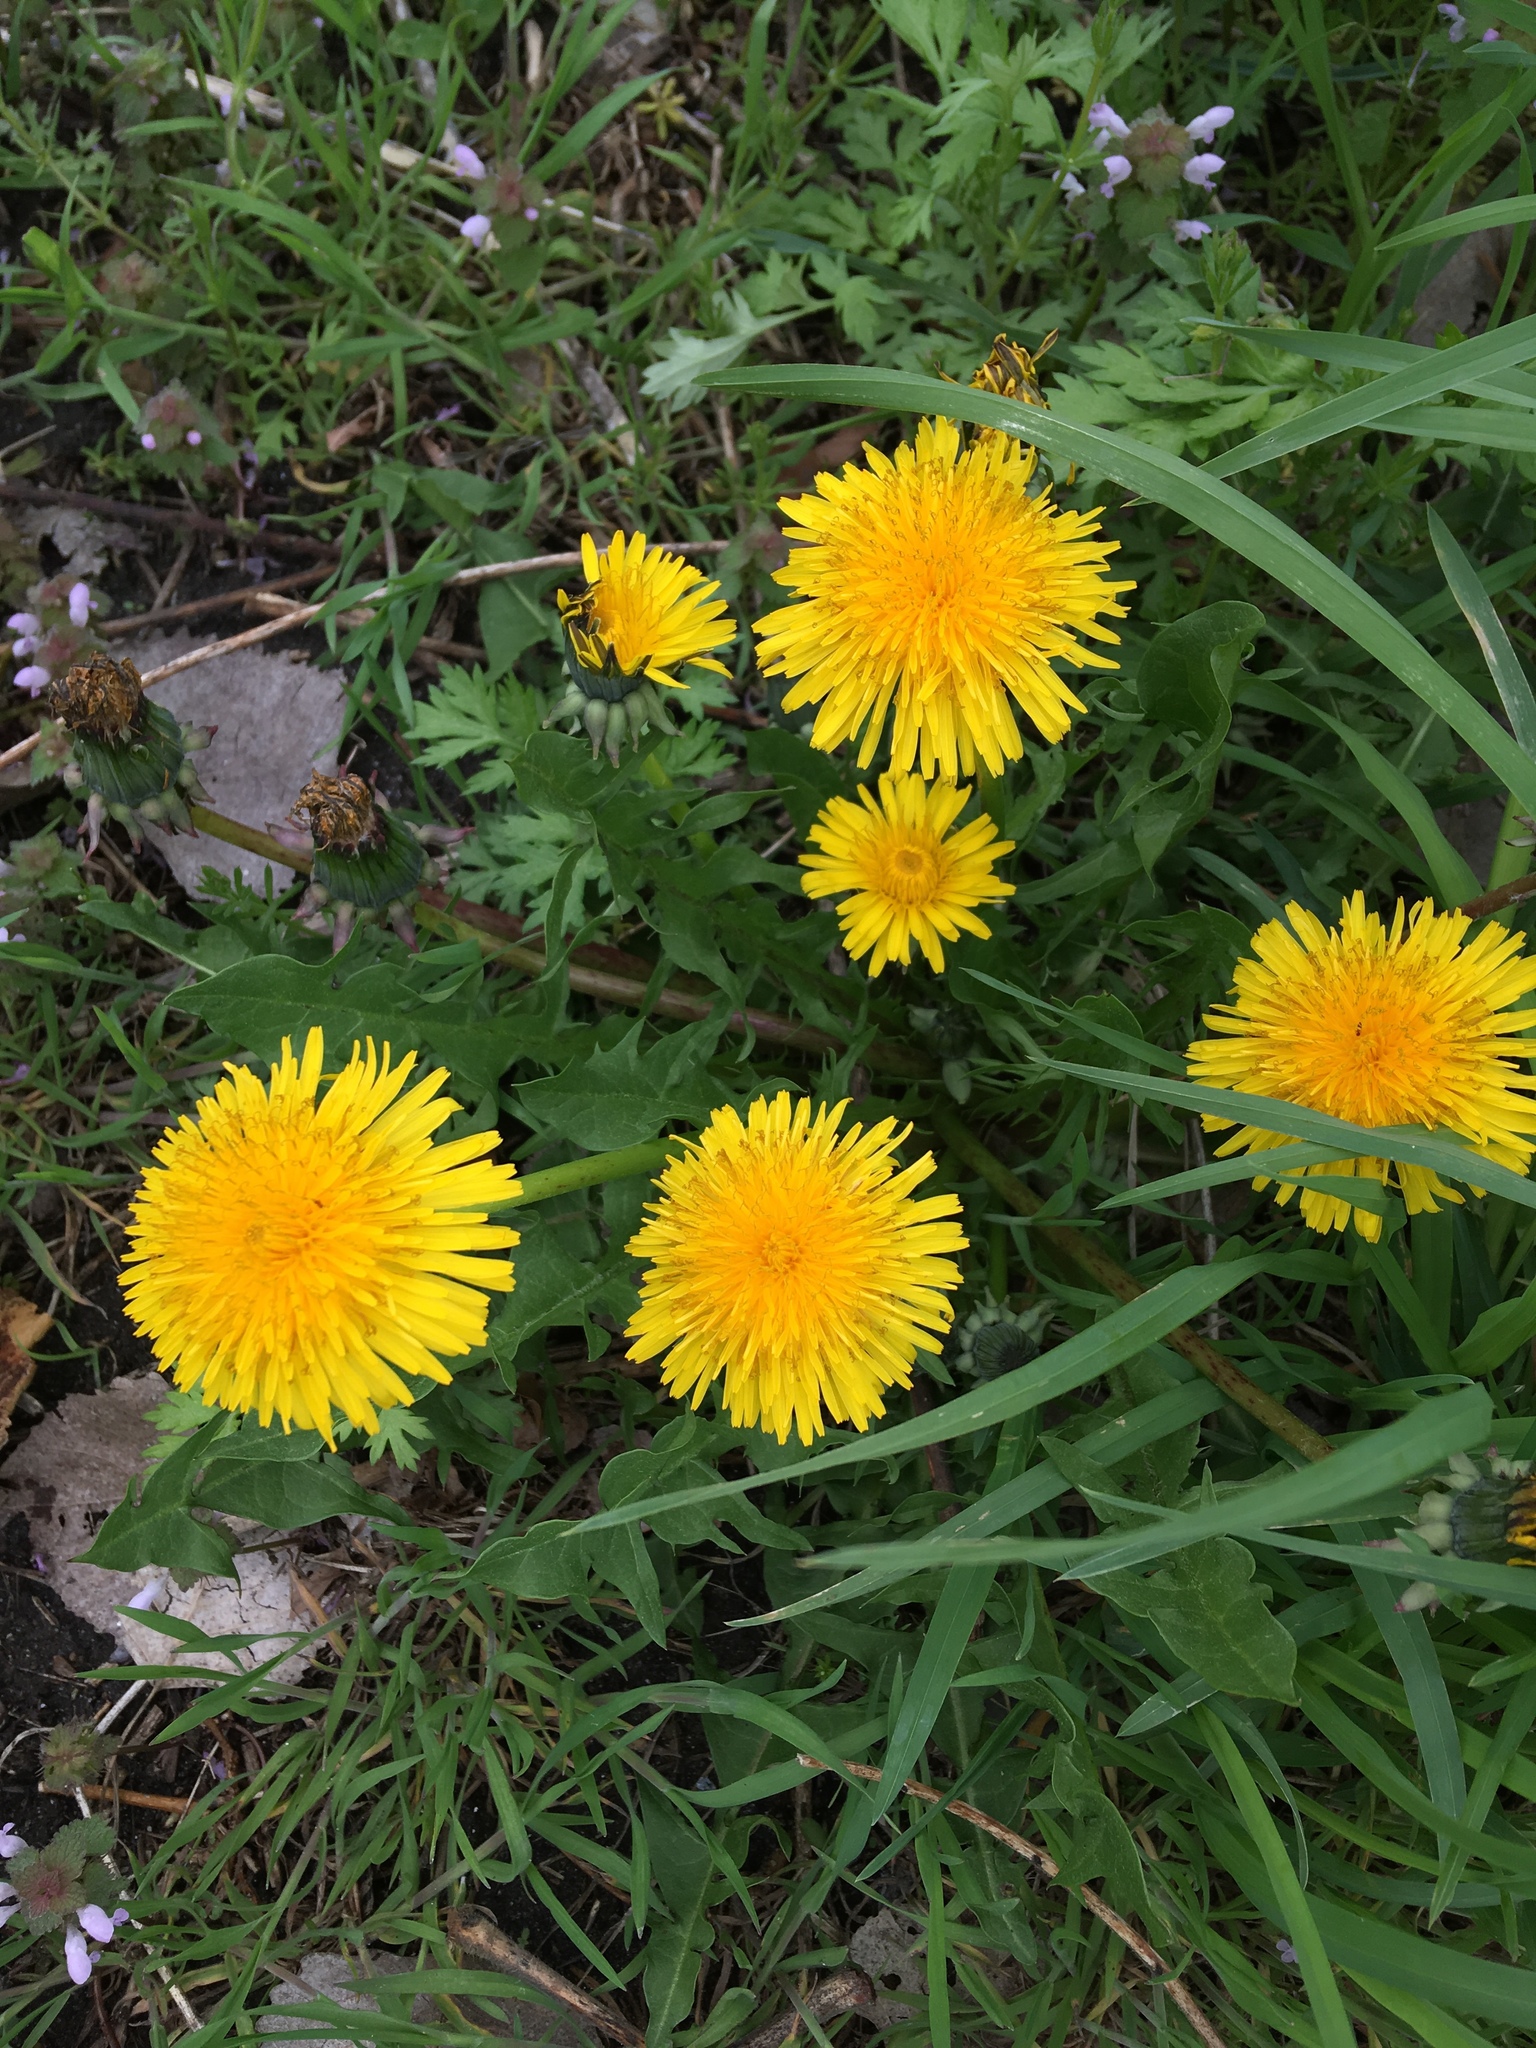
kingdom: Plantae
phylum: Tracheophyta
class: Magnoliopsida
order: Asterales
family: Asteraceae
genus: Taraxacum
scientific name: Taraxacum officinale
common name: Common dandelion
